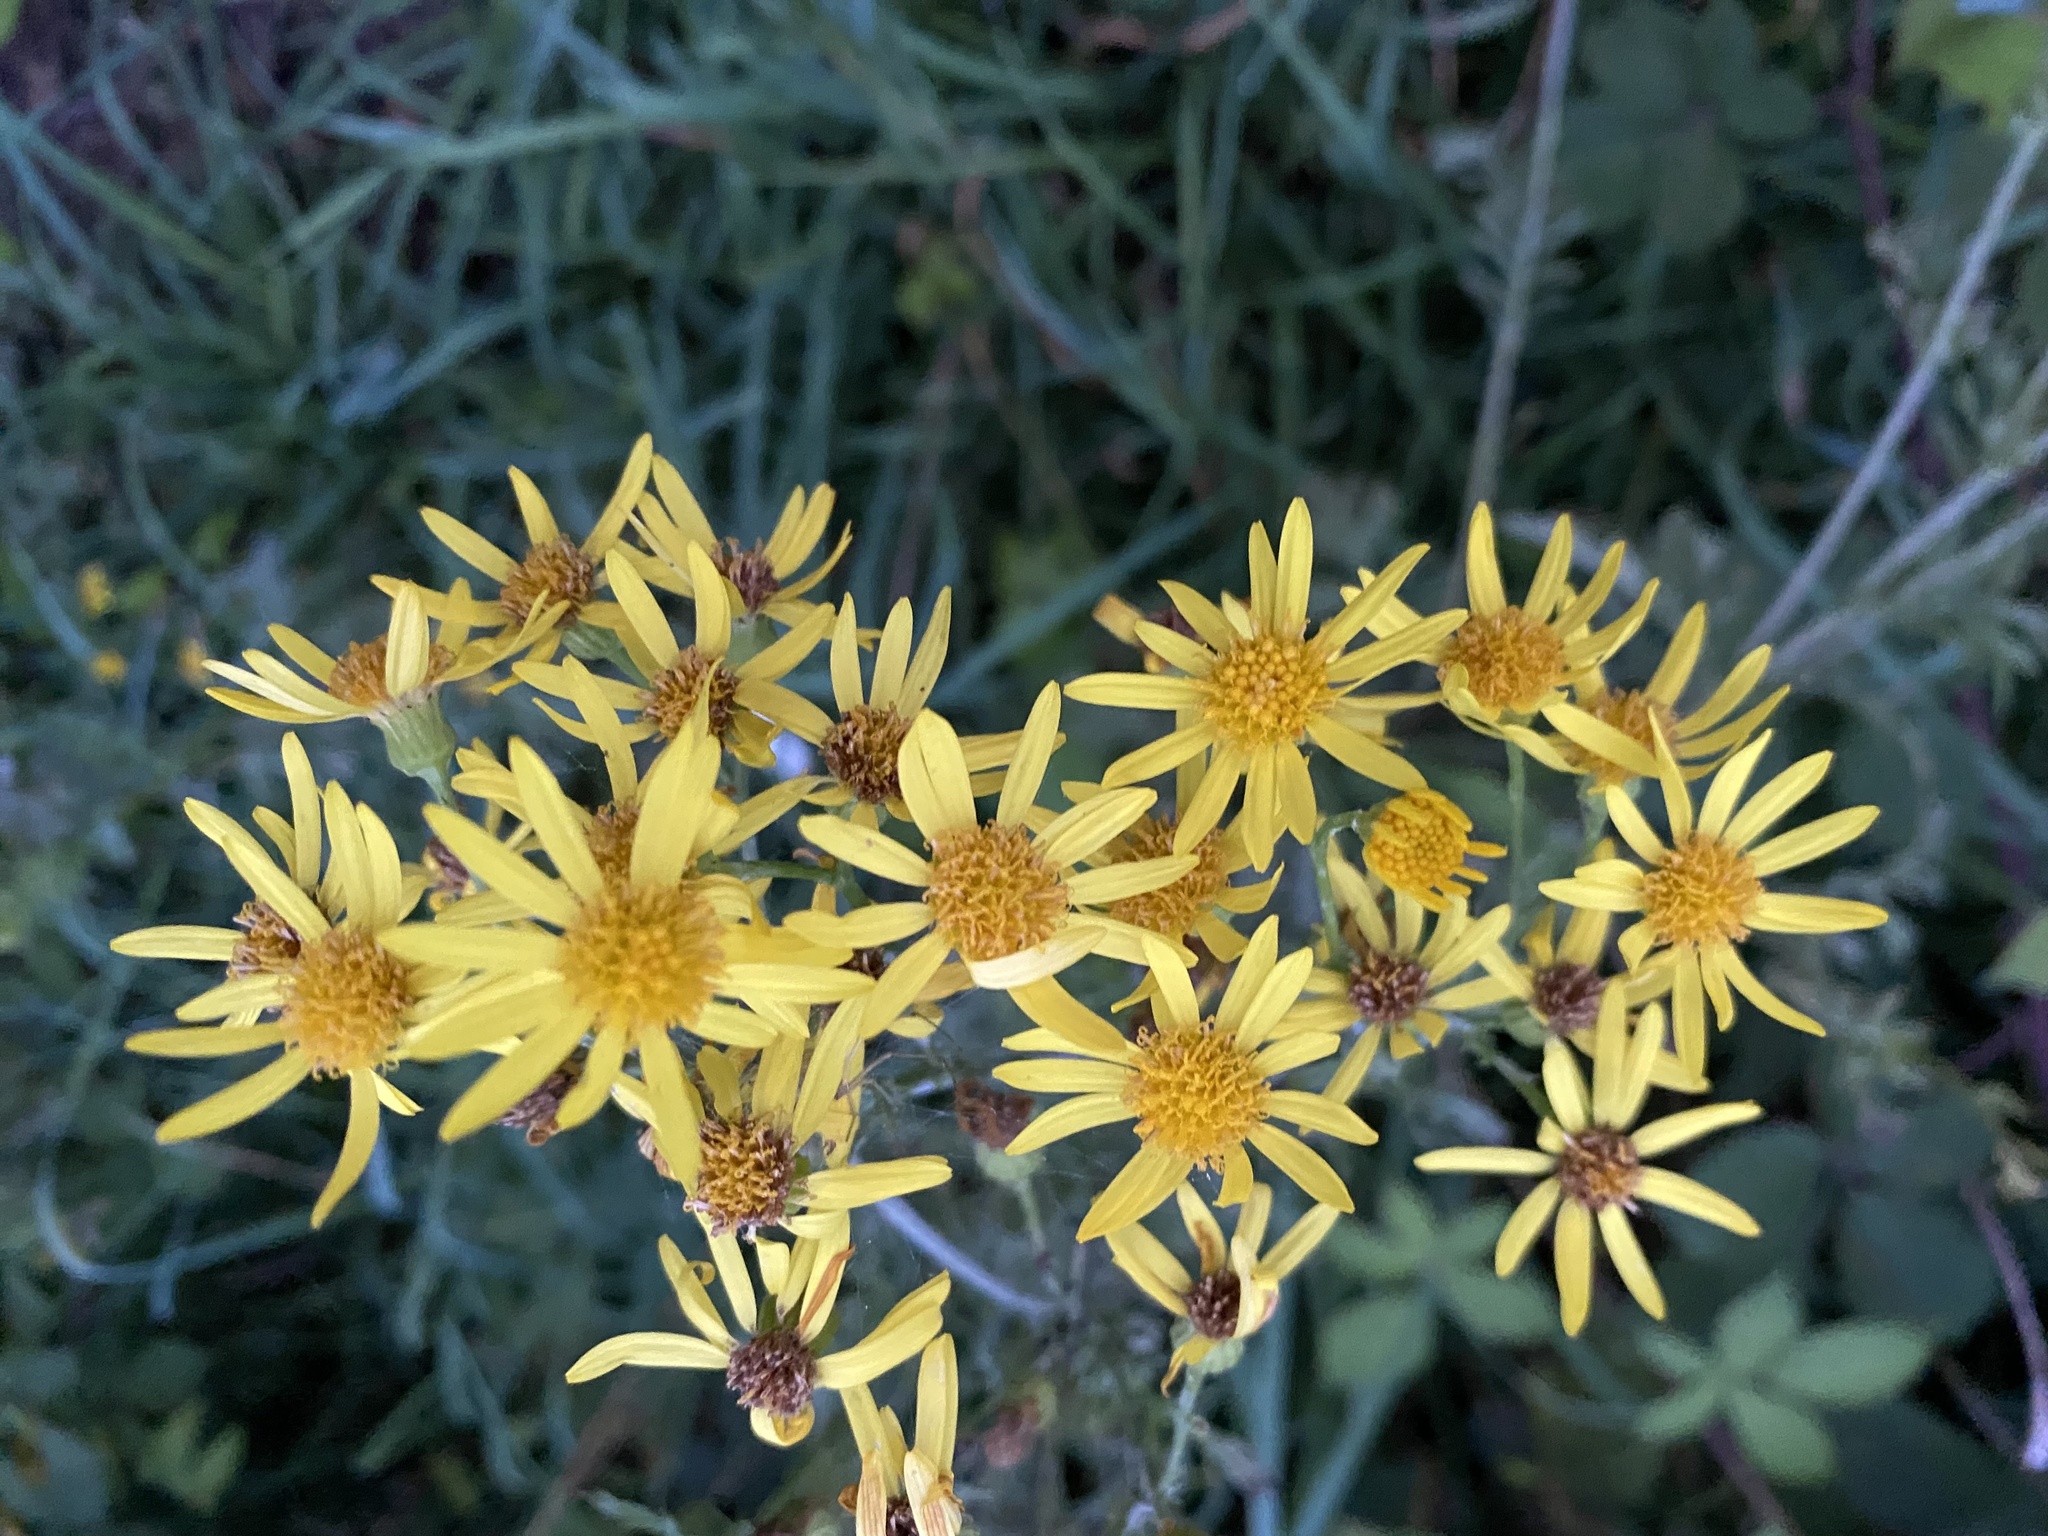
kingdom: Plantae
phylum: Tracheophyta
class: Magnoliopsida
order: Asterales
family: Asteraceae
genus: Jacobaea
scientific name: Jacobaea vulgaris
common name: Stinking willie
